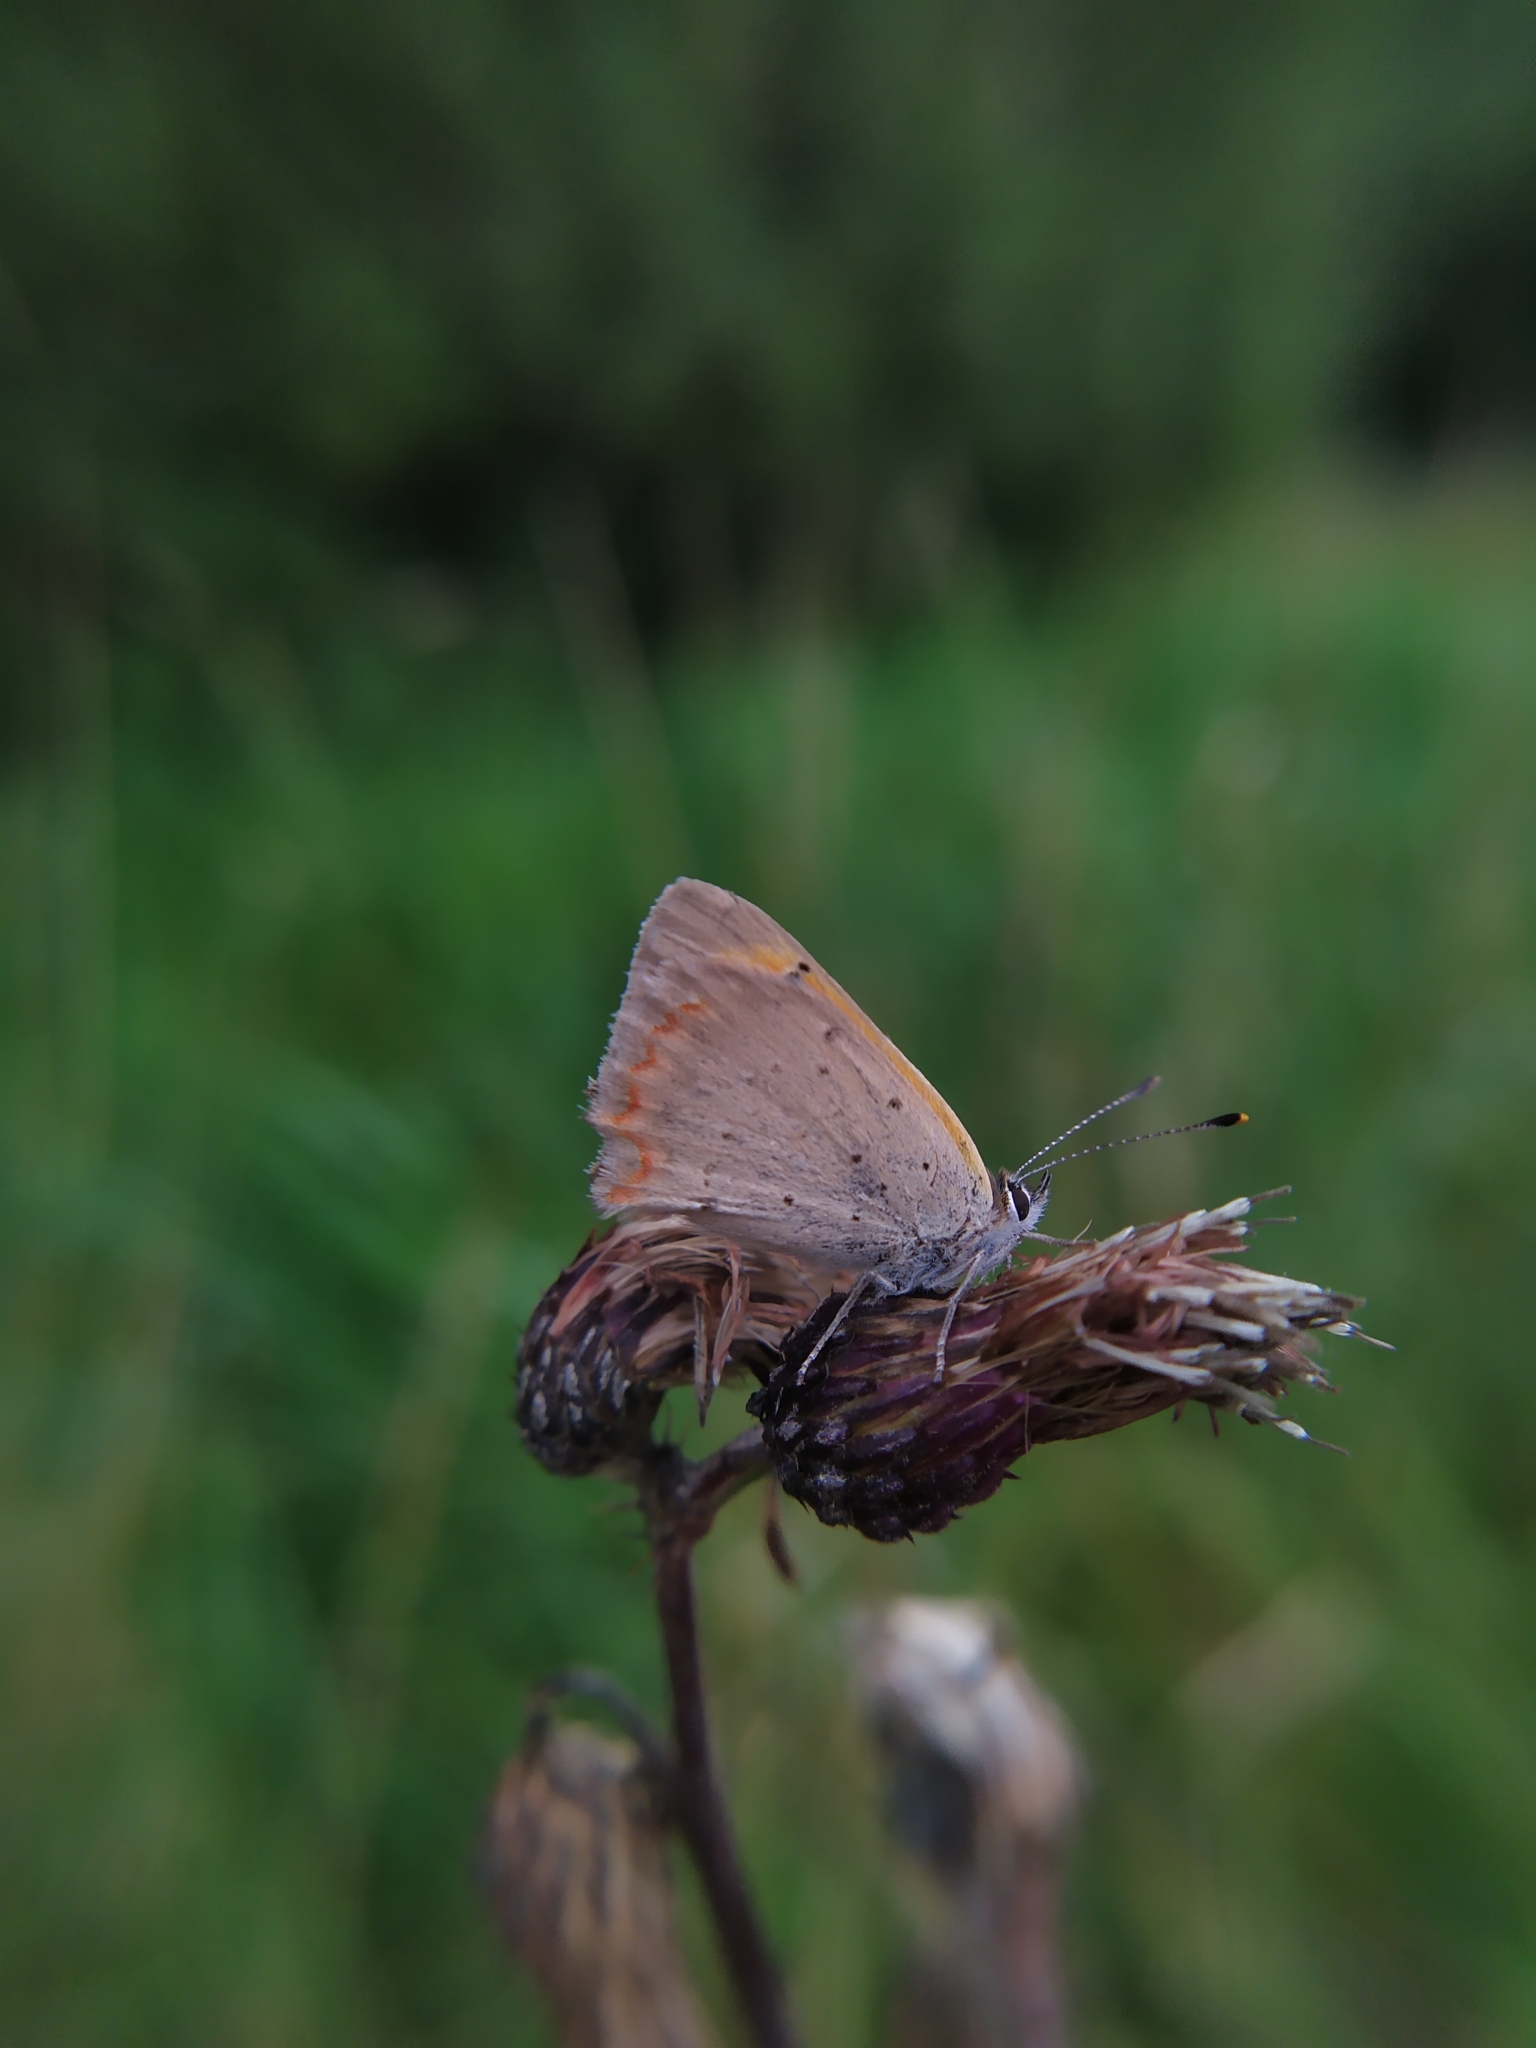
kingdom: Animalia
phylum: Arthropoda
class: Insecta
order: Lepidoptera
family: Lycaenidae
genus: Lycaena
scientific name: Lycaena phlaeas
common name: Small copper
